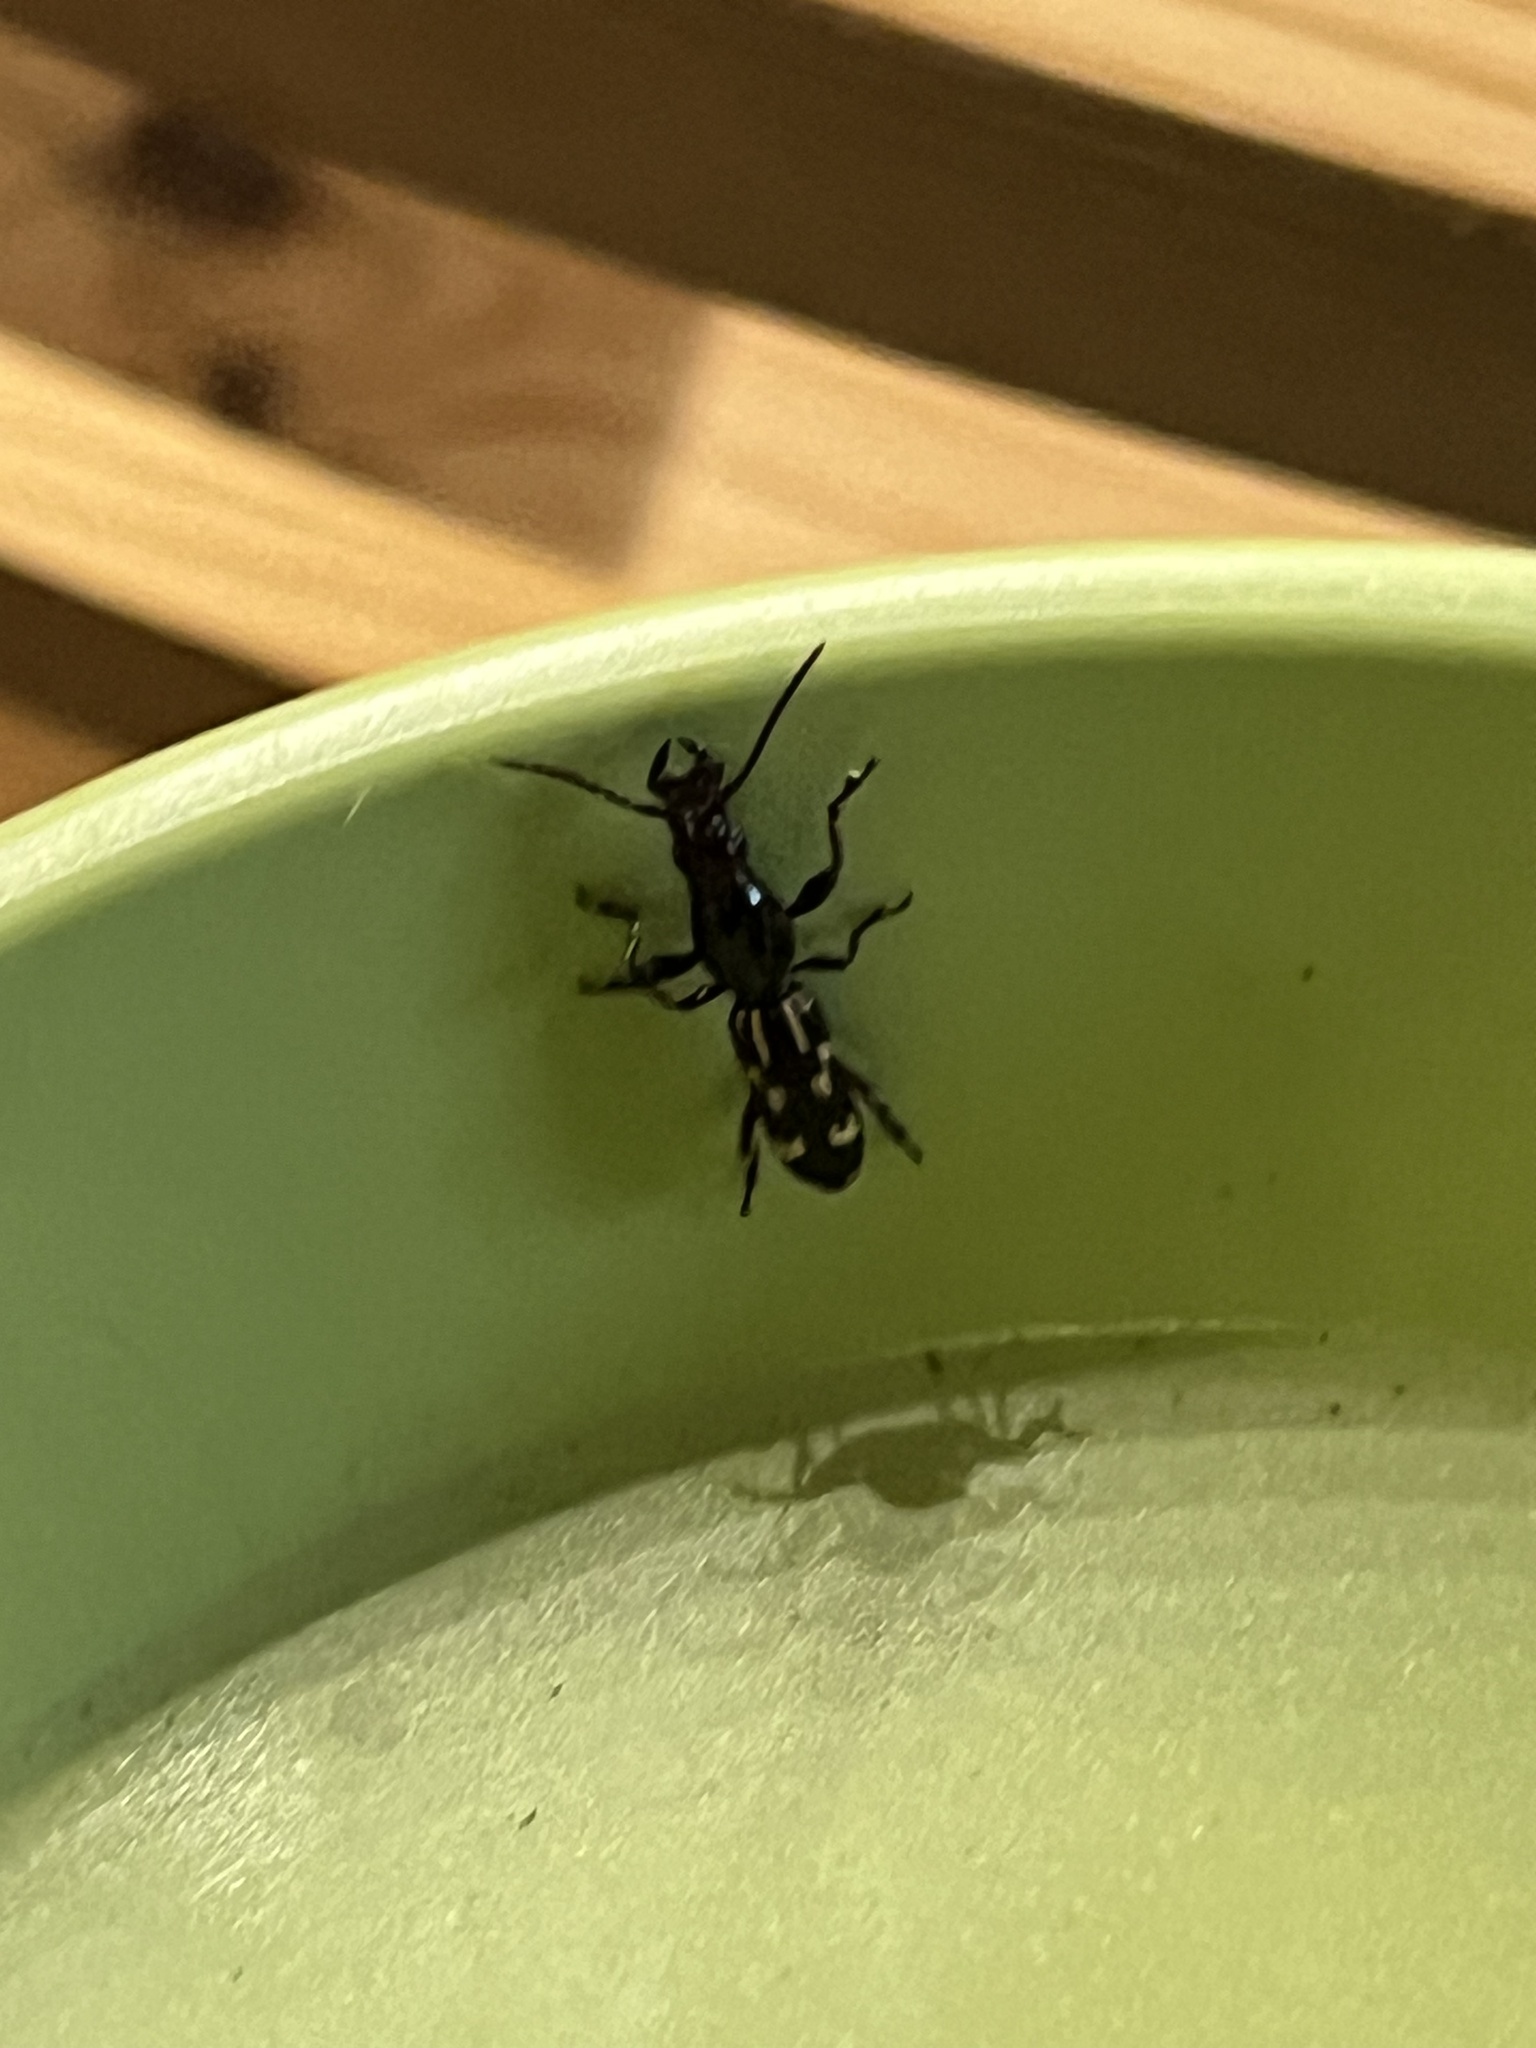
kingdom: Animalia
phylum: Arthropoda
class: Insecta
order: Coleoptera
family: Brentidae
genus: Arrenodes
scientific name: Arrenodes minutus
